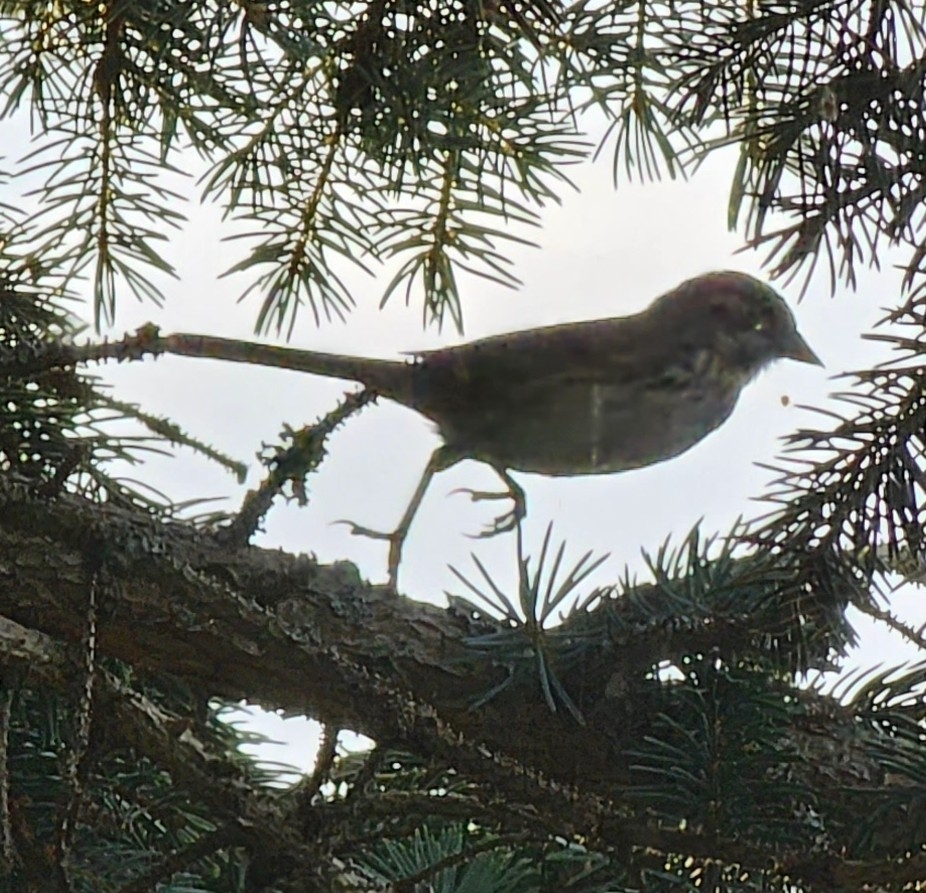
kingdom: Animalia
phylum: Chordata
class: Aves
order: Passeriformes
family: Passerellidae
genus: Melospiza
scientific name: Melospiza melodia
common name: Song sparrow
